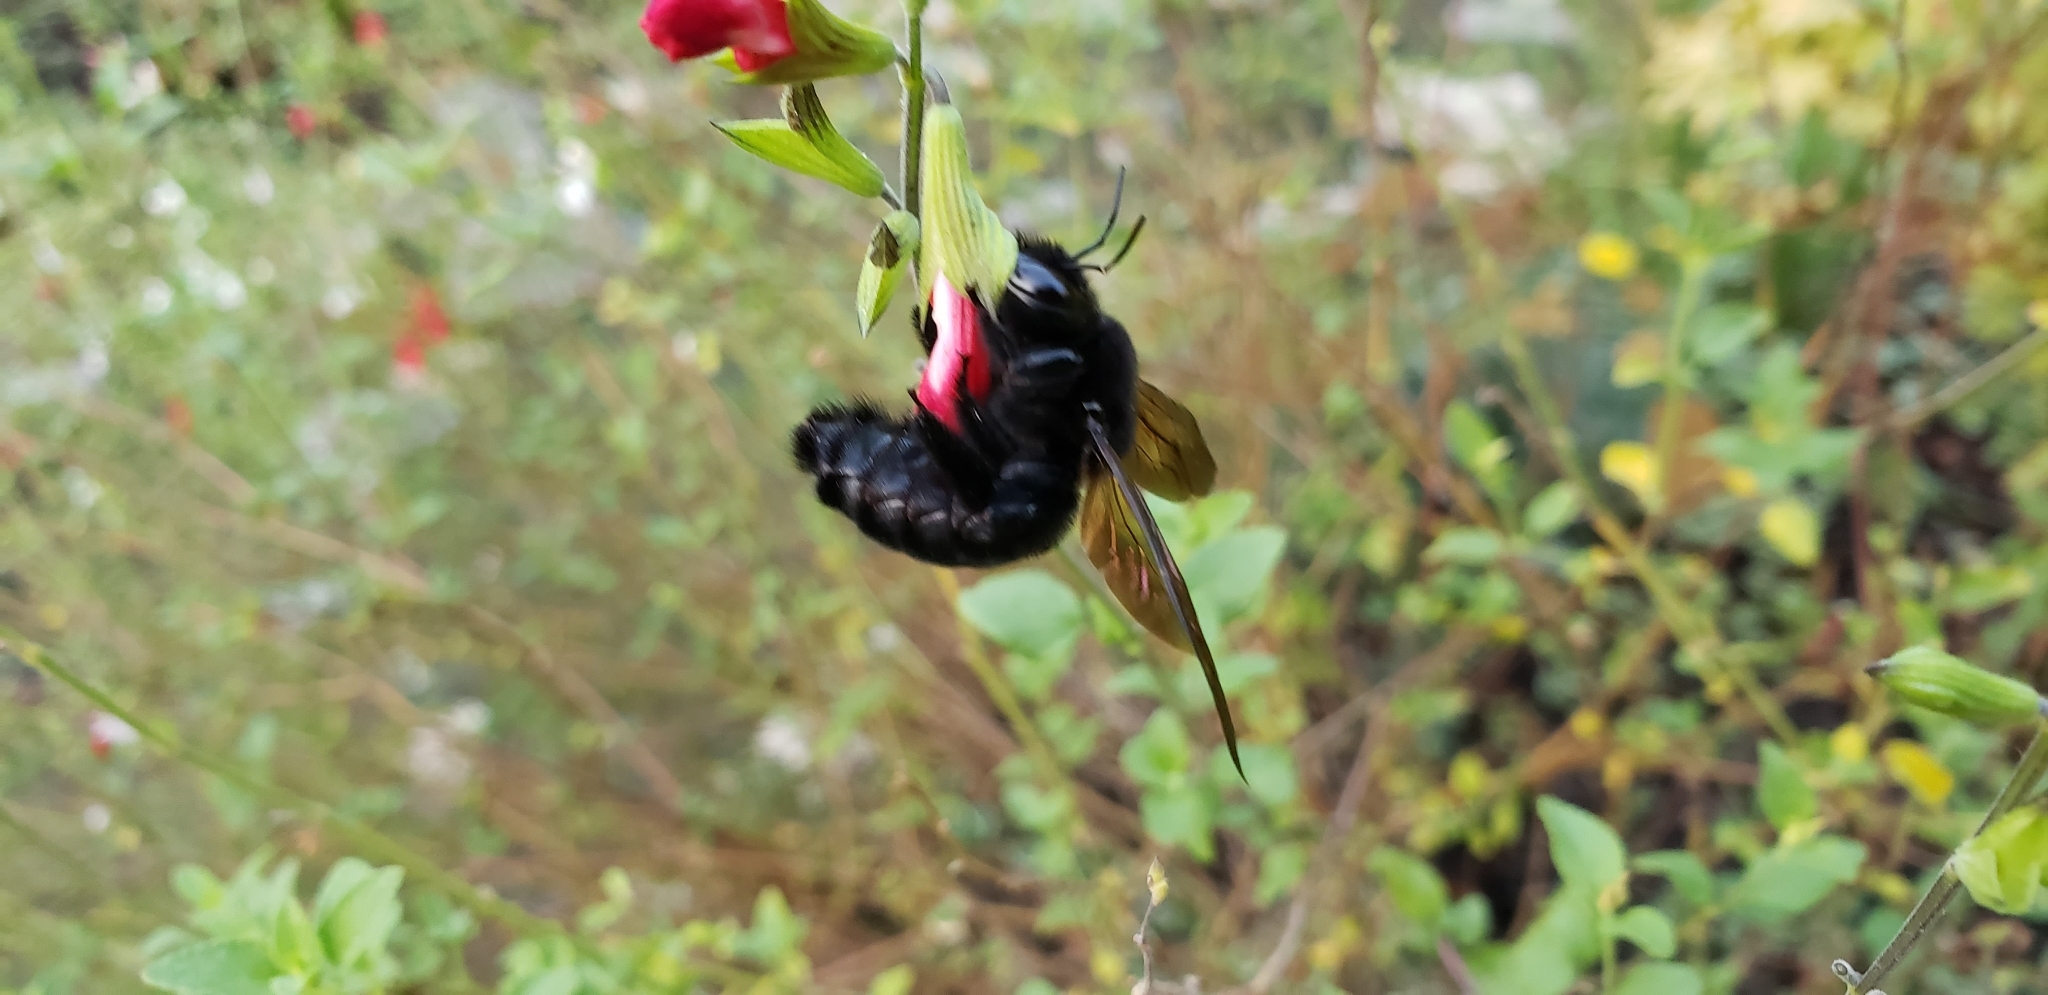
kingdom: Animalia
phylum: Arthropoda
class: Insecta
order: Hymenoptera
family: Apidae
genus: Xylocopa
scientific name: Xylocopa sonorina
